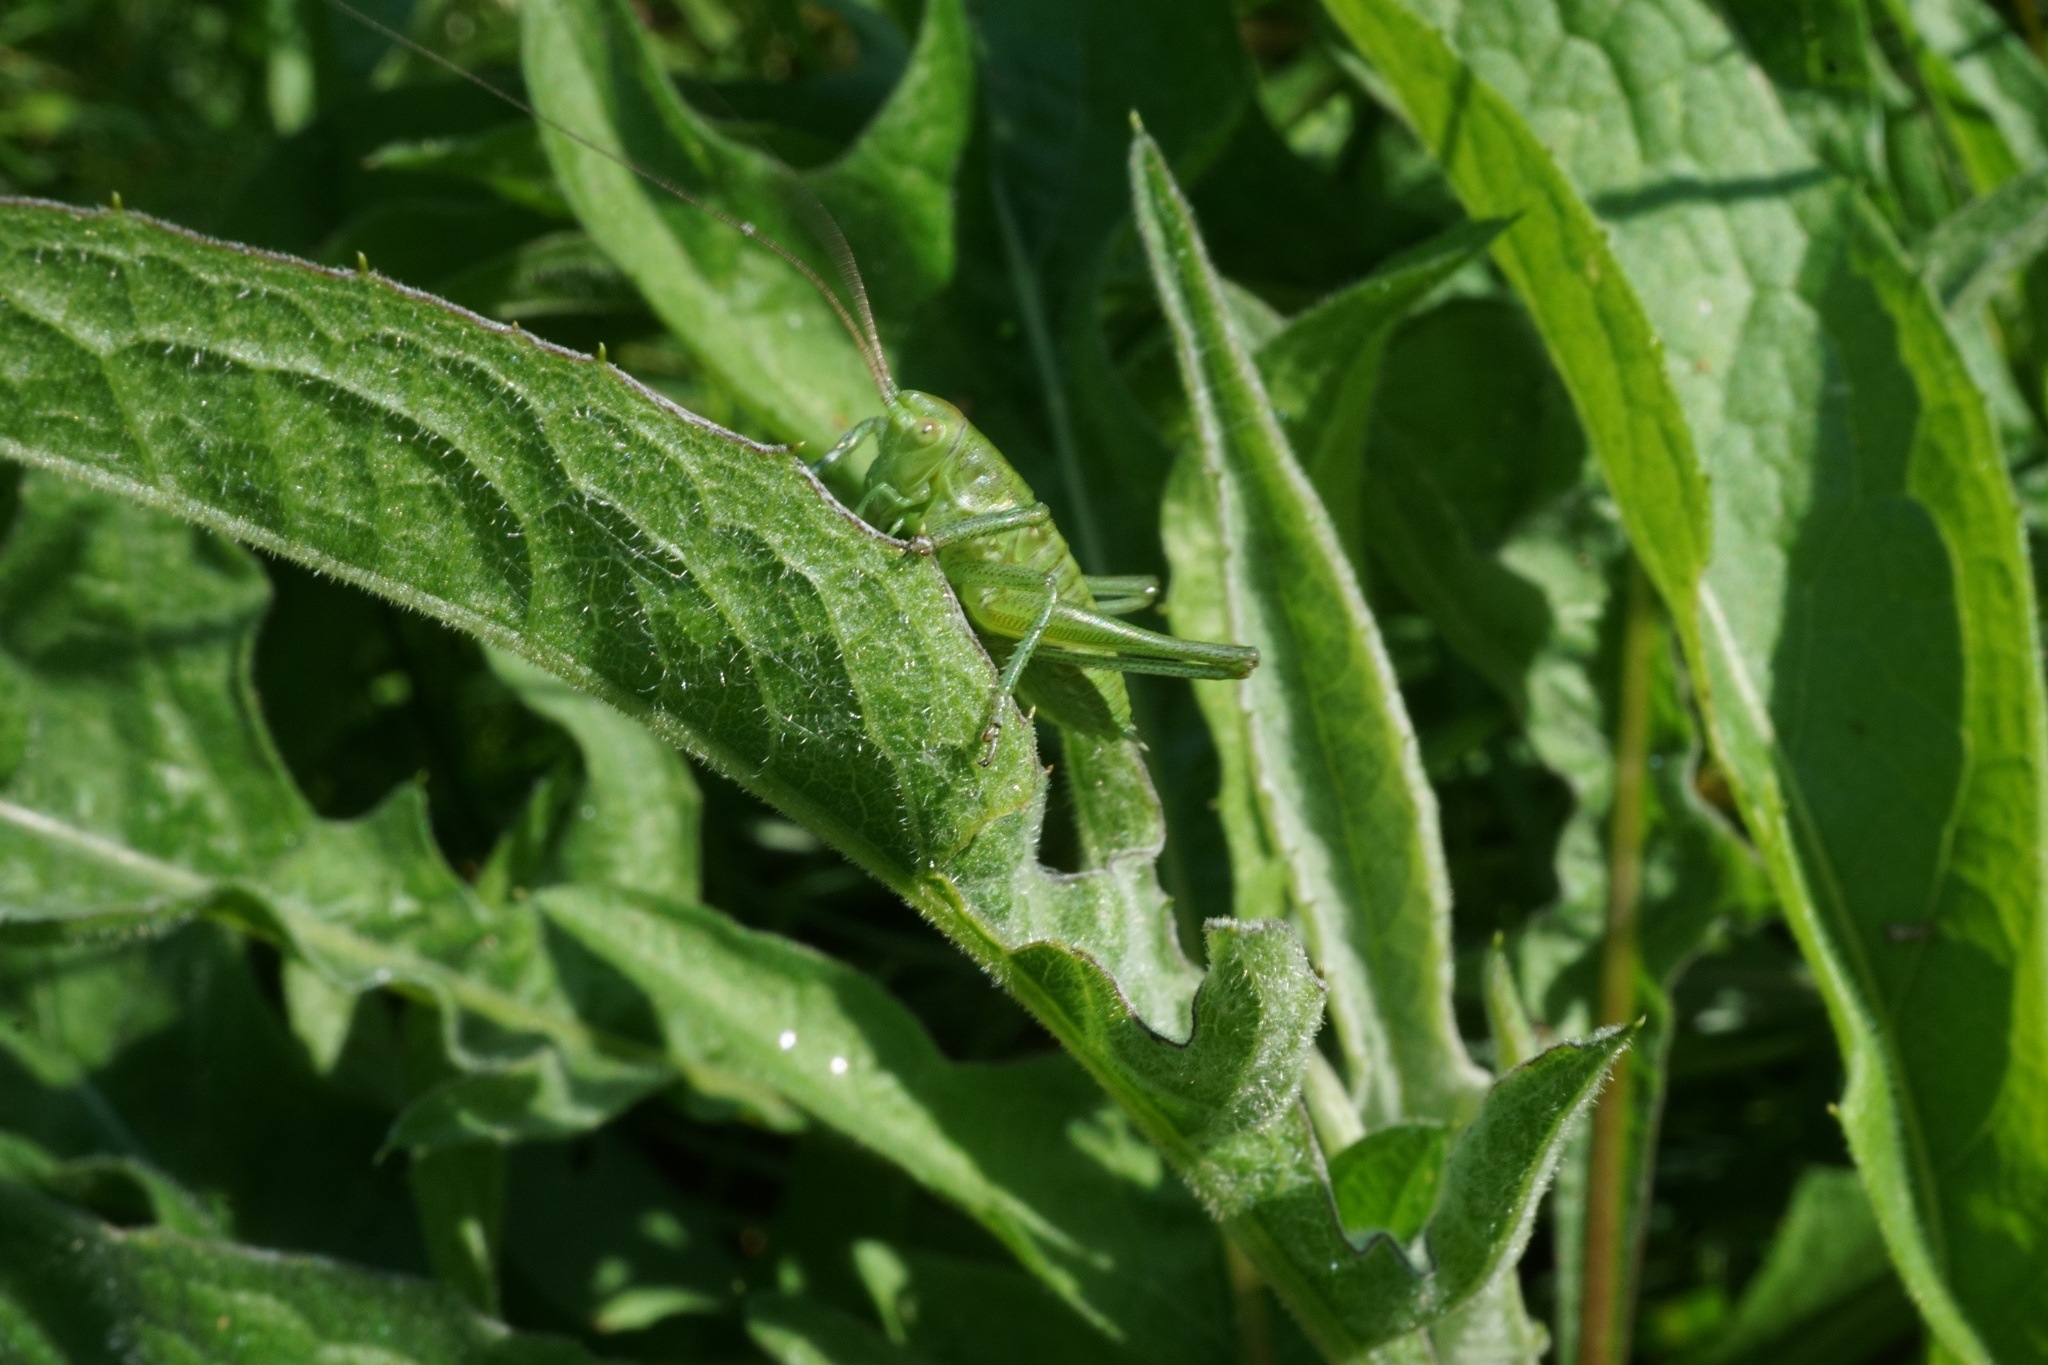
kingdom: Animalia
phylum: Arthropoda
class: Insecta
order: Orthoptera
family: Tettigoniidae
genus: Tettigonia
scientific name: Tettigonia viridissima
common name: Great green bush-cricket
